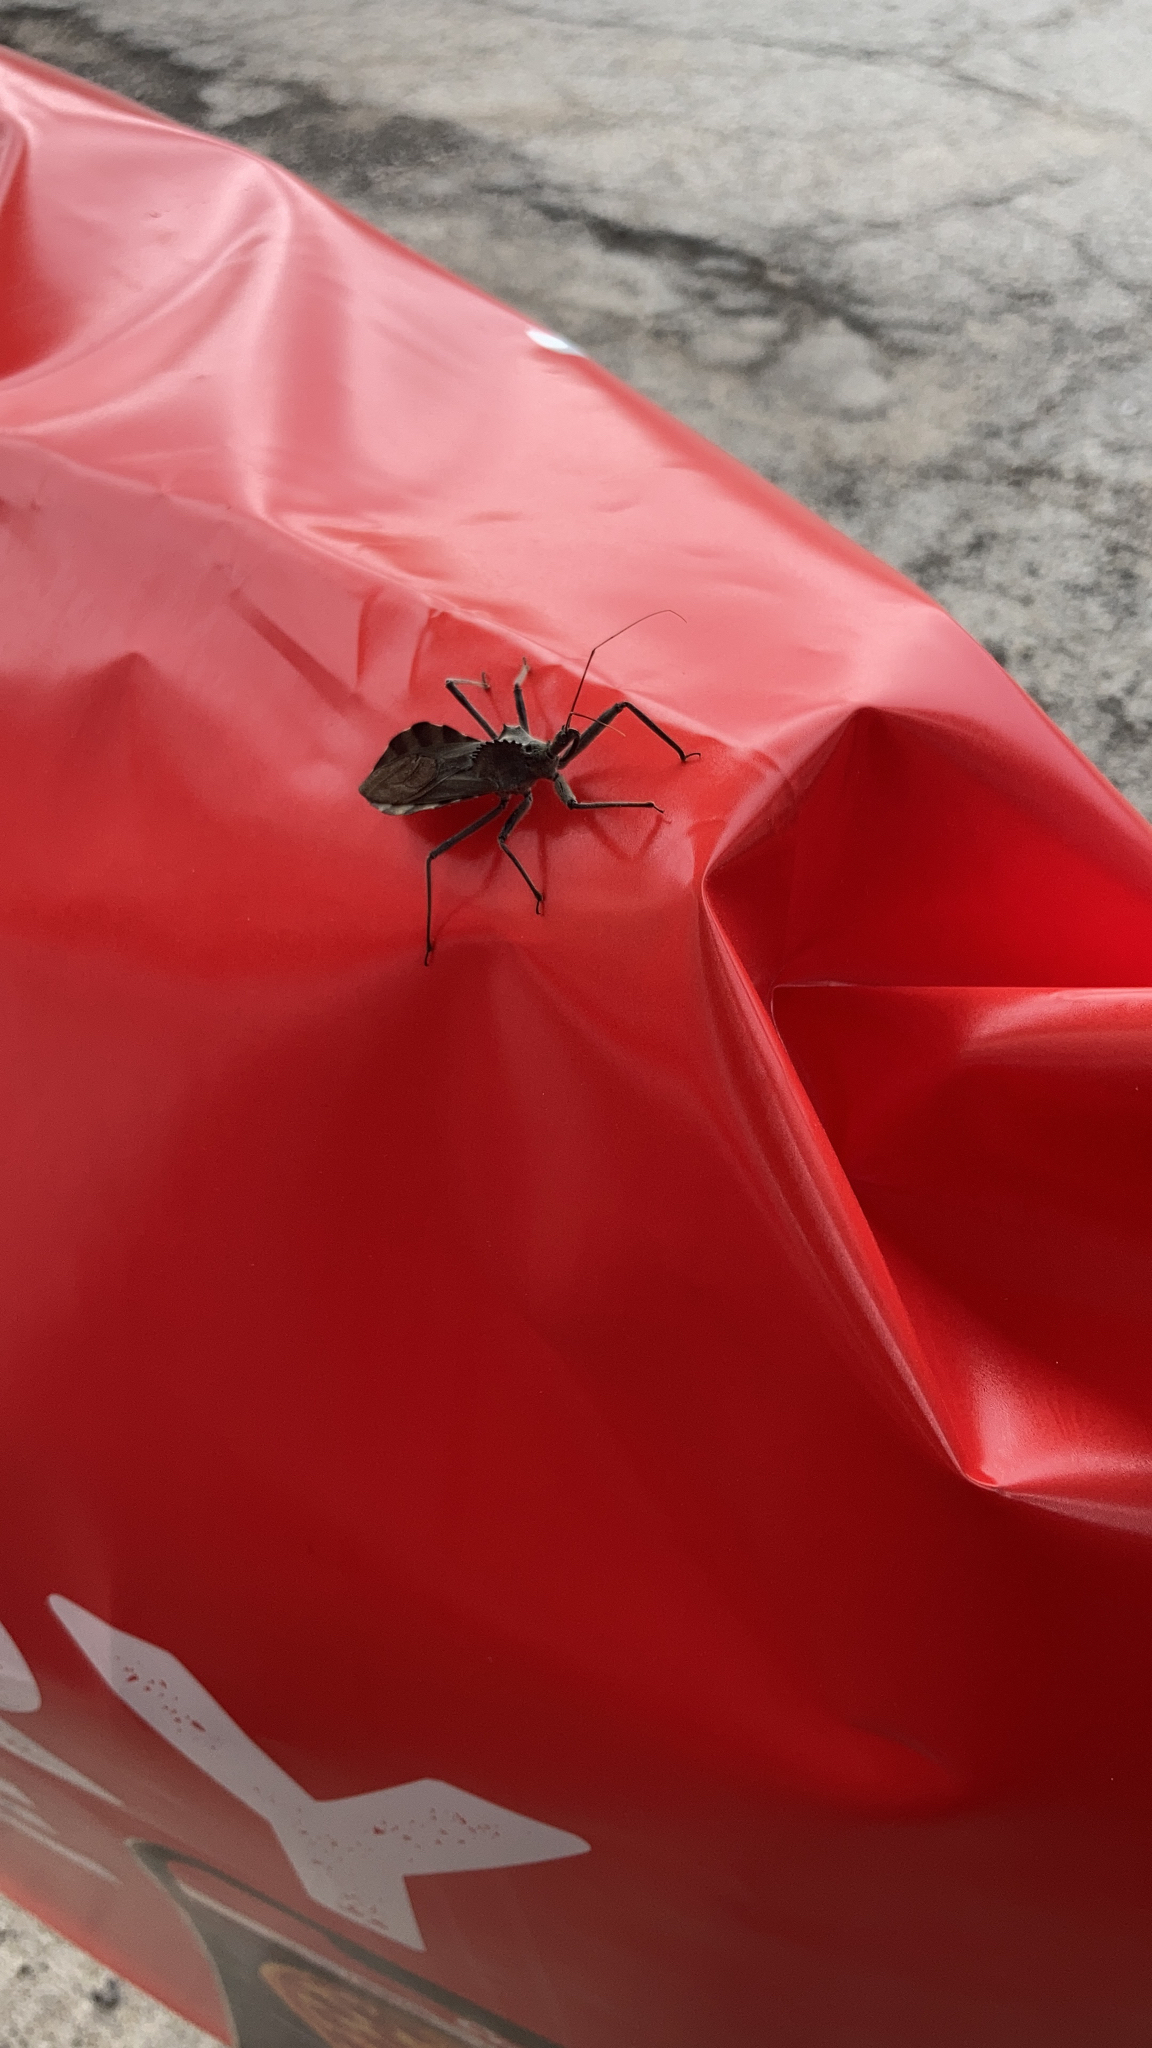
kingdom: Animalia
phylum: Arthropoda
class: Insecta
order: Hemiptera
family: Reduviidae
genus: Arilus
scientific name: Arilus cristatus
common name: North american wheel bug
